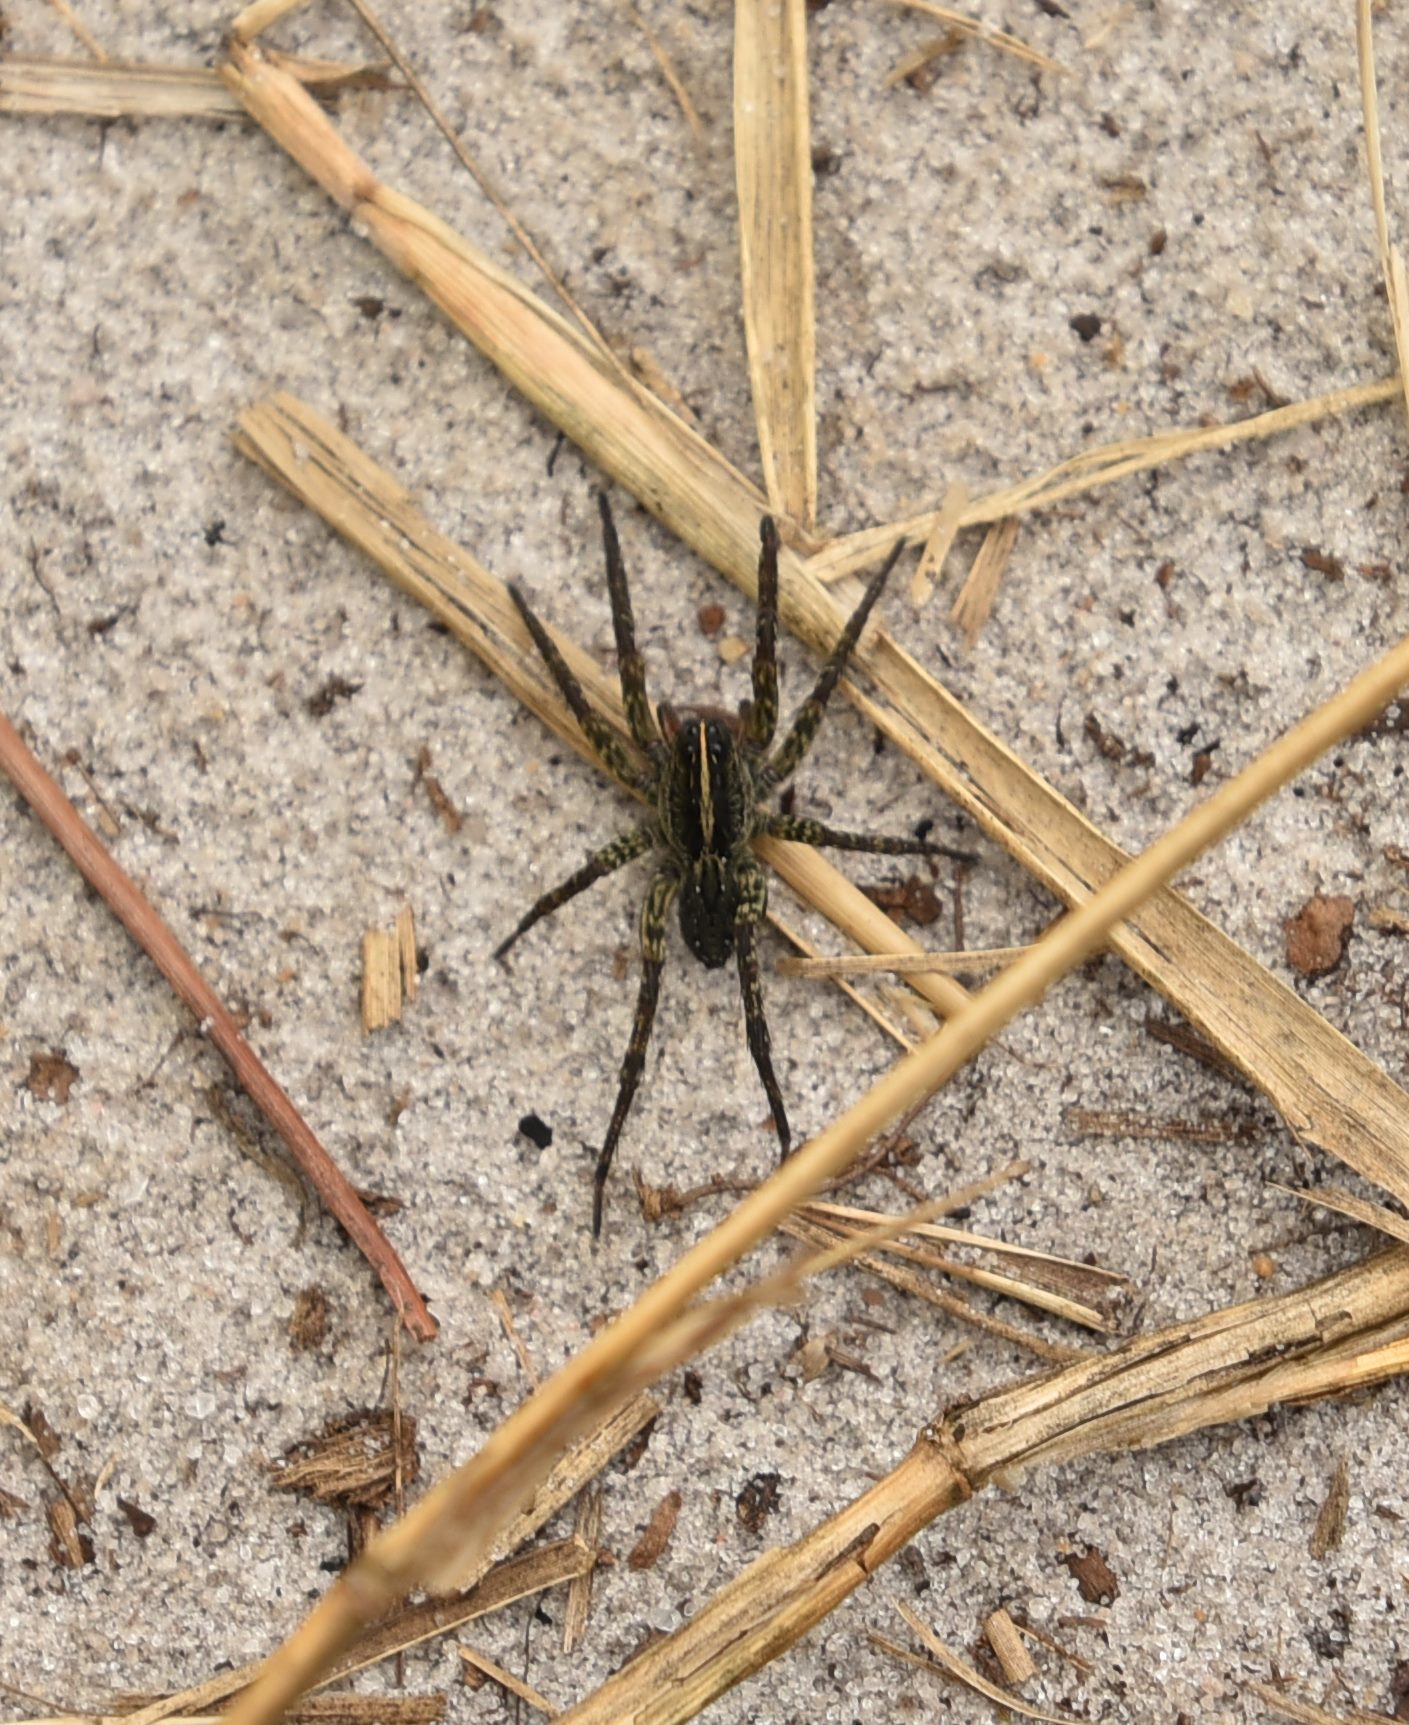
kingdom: Animalia
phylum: Arthropoda
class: Arachnida
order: Araneae
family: Lycosidae
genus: Tigrosa
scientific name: Tigrosa georgicola
